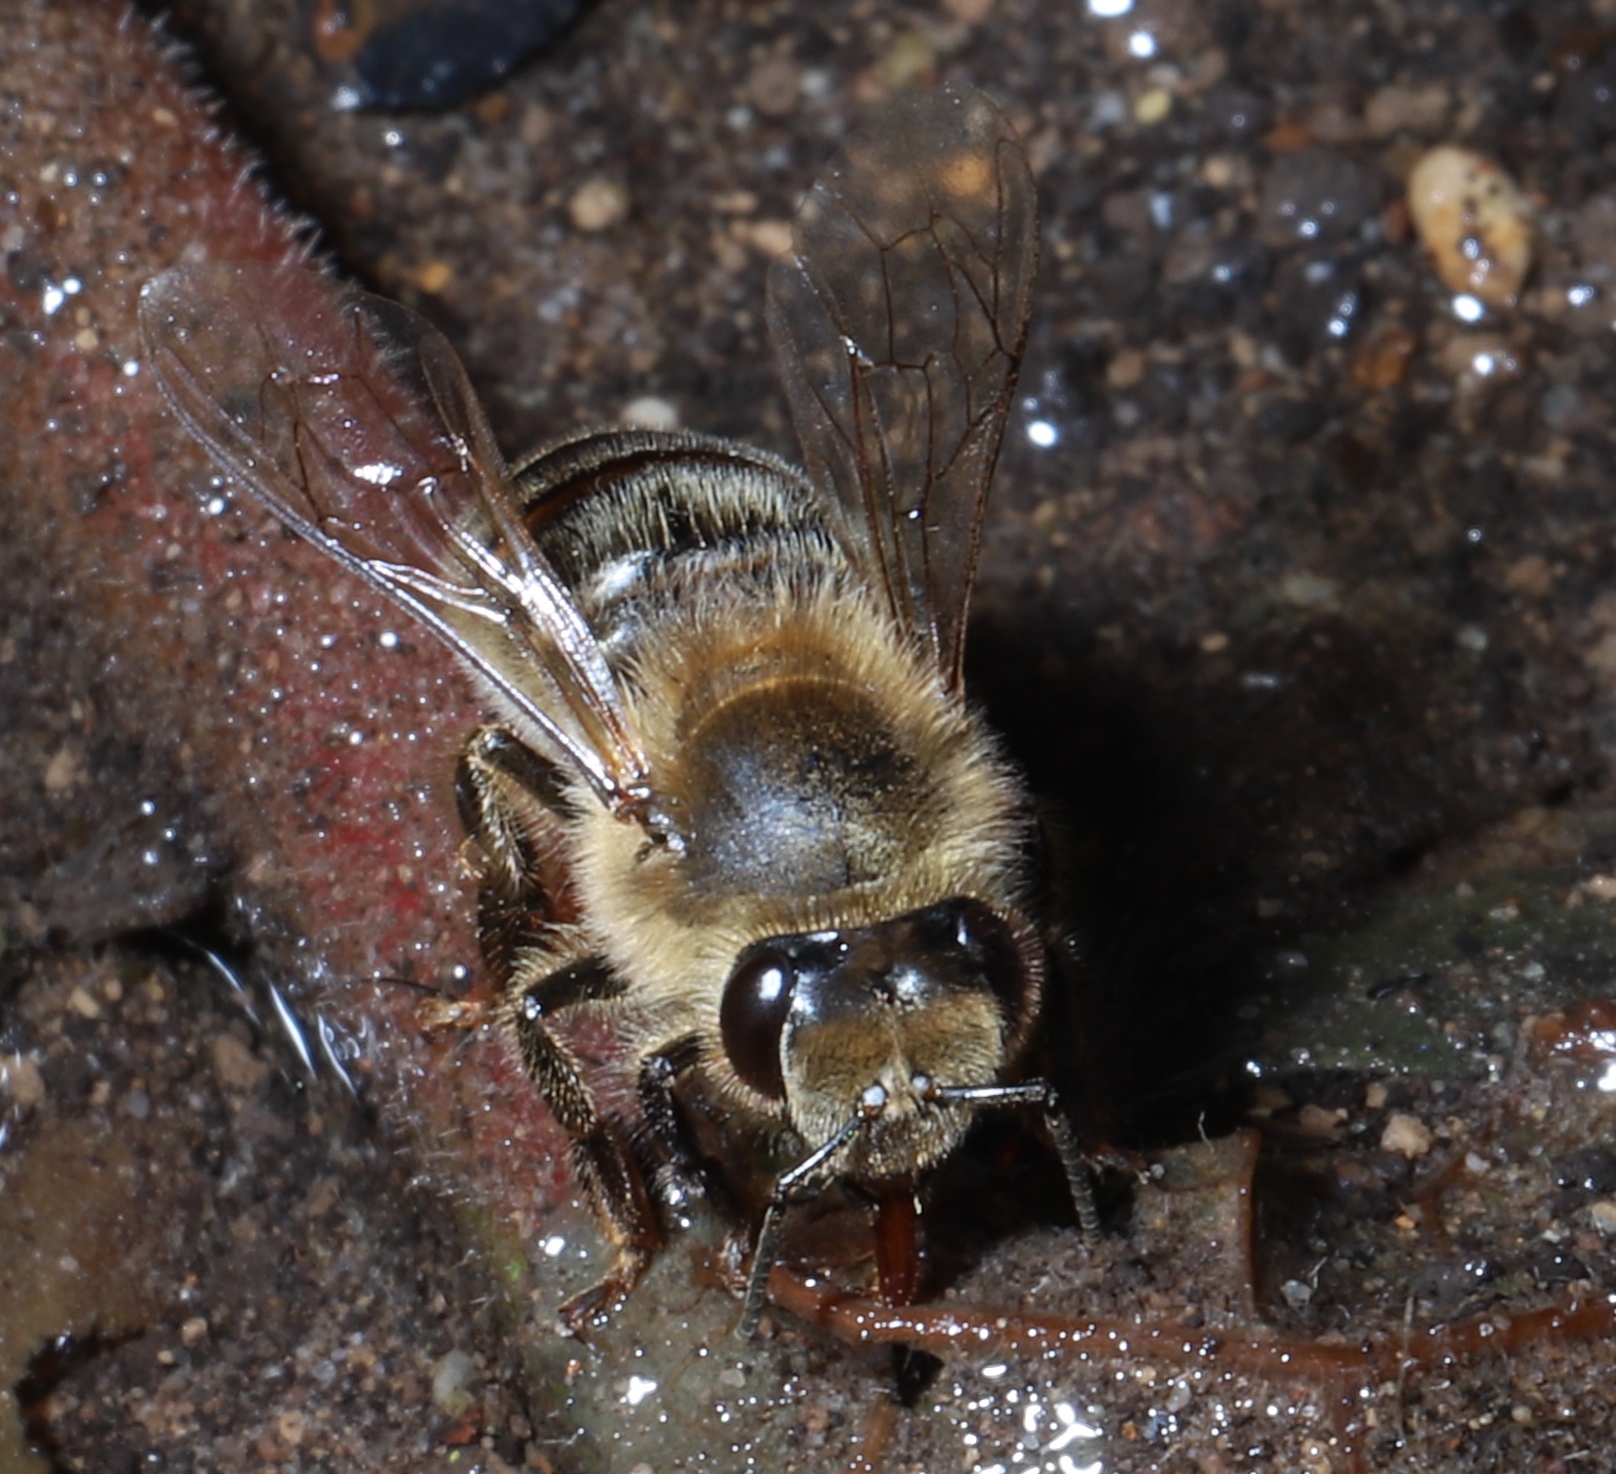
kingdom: Animalia
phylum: Arthropoda
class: Insecta
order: Hymenoptera
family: Apidae
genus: Apis
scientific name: Apis mellifera
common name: Honey bee
